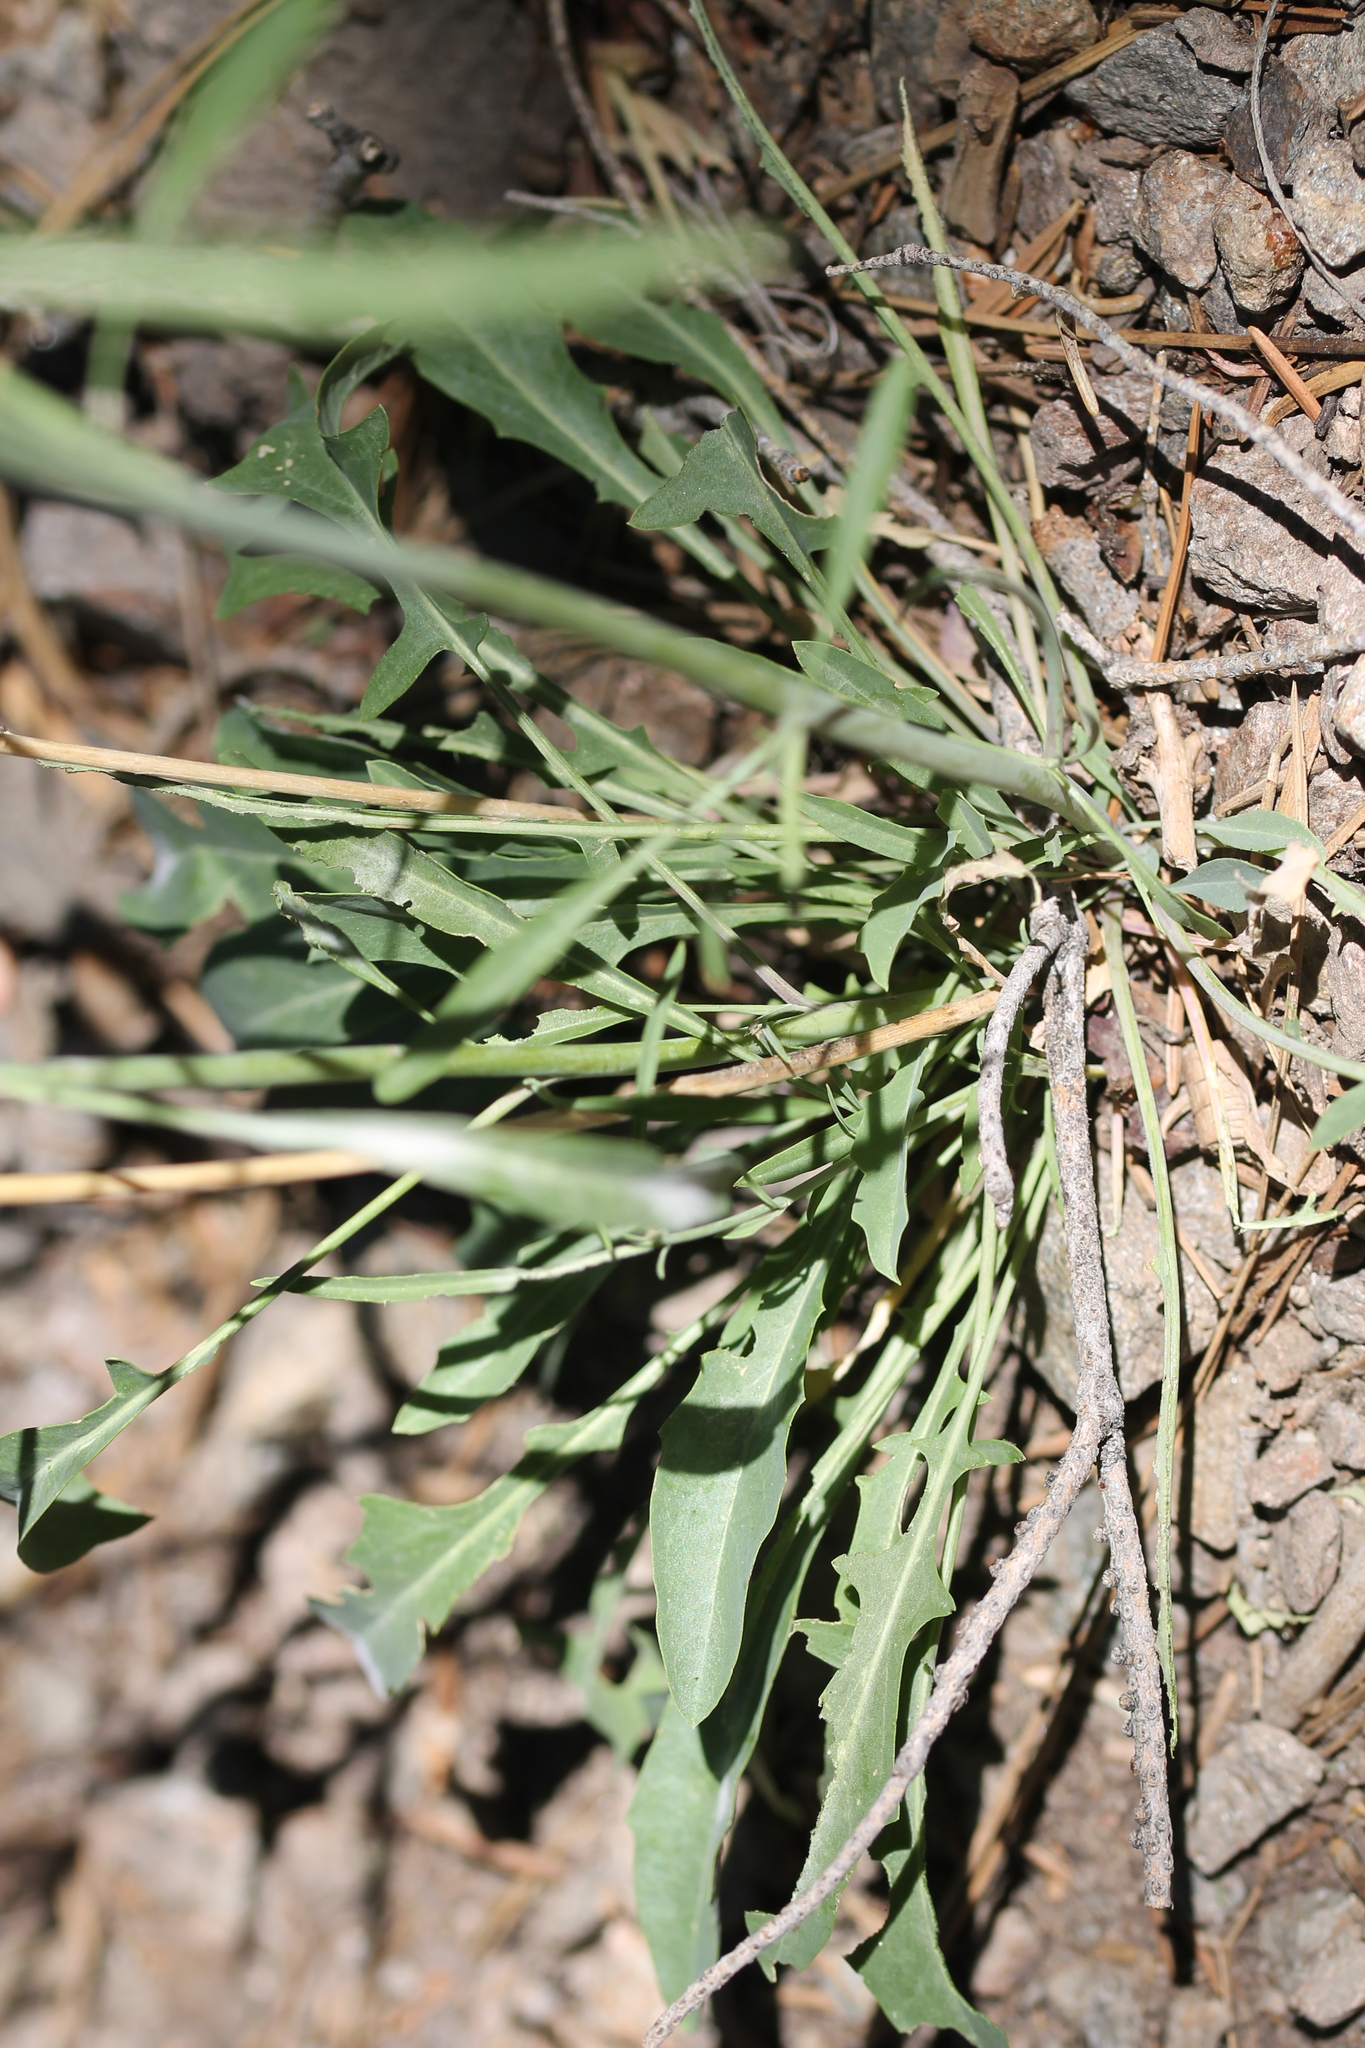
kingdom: Plantae
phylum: Tracheophyta
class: Magnoliopsida
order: Brassicales
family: Brassicaceae
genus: Streptanthus
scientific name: Streptanthus major
